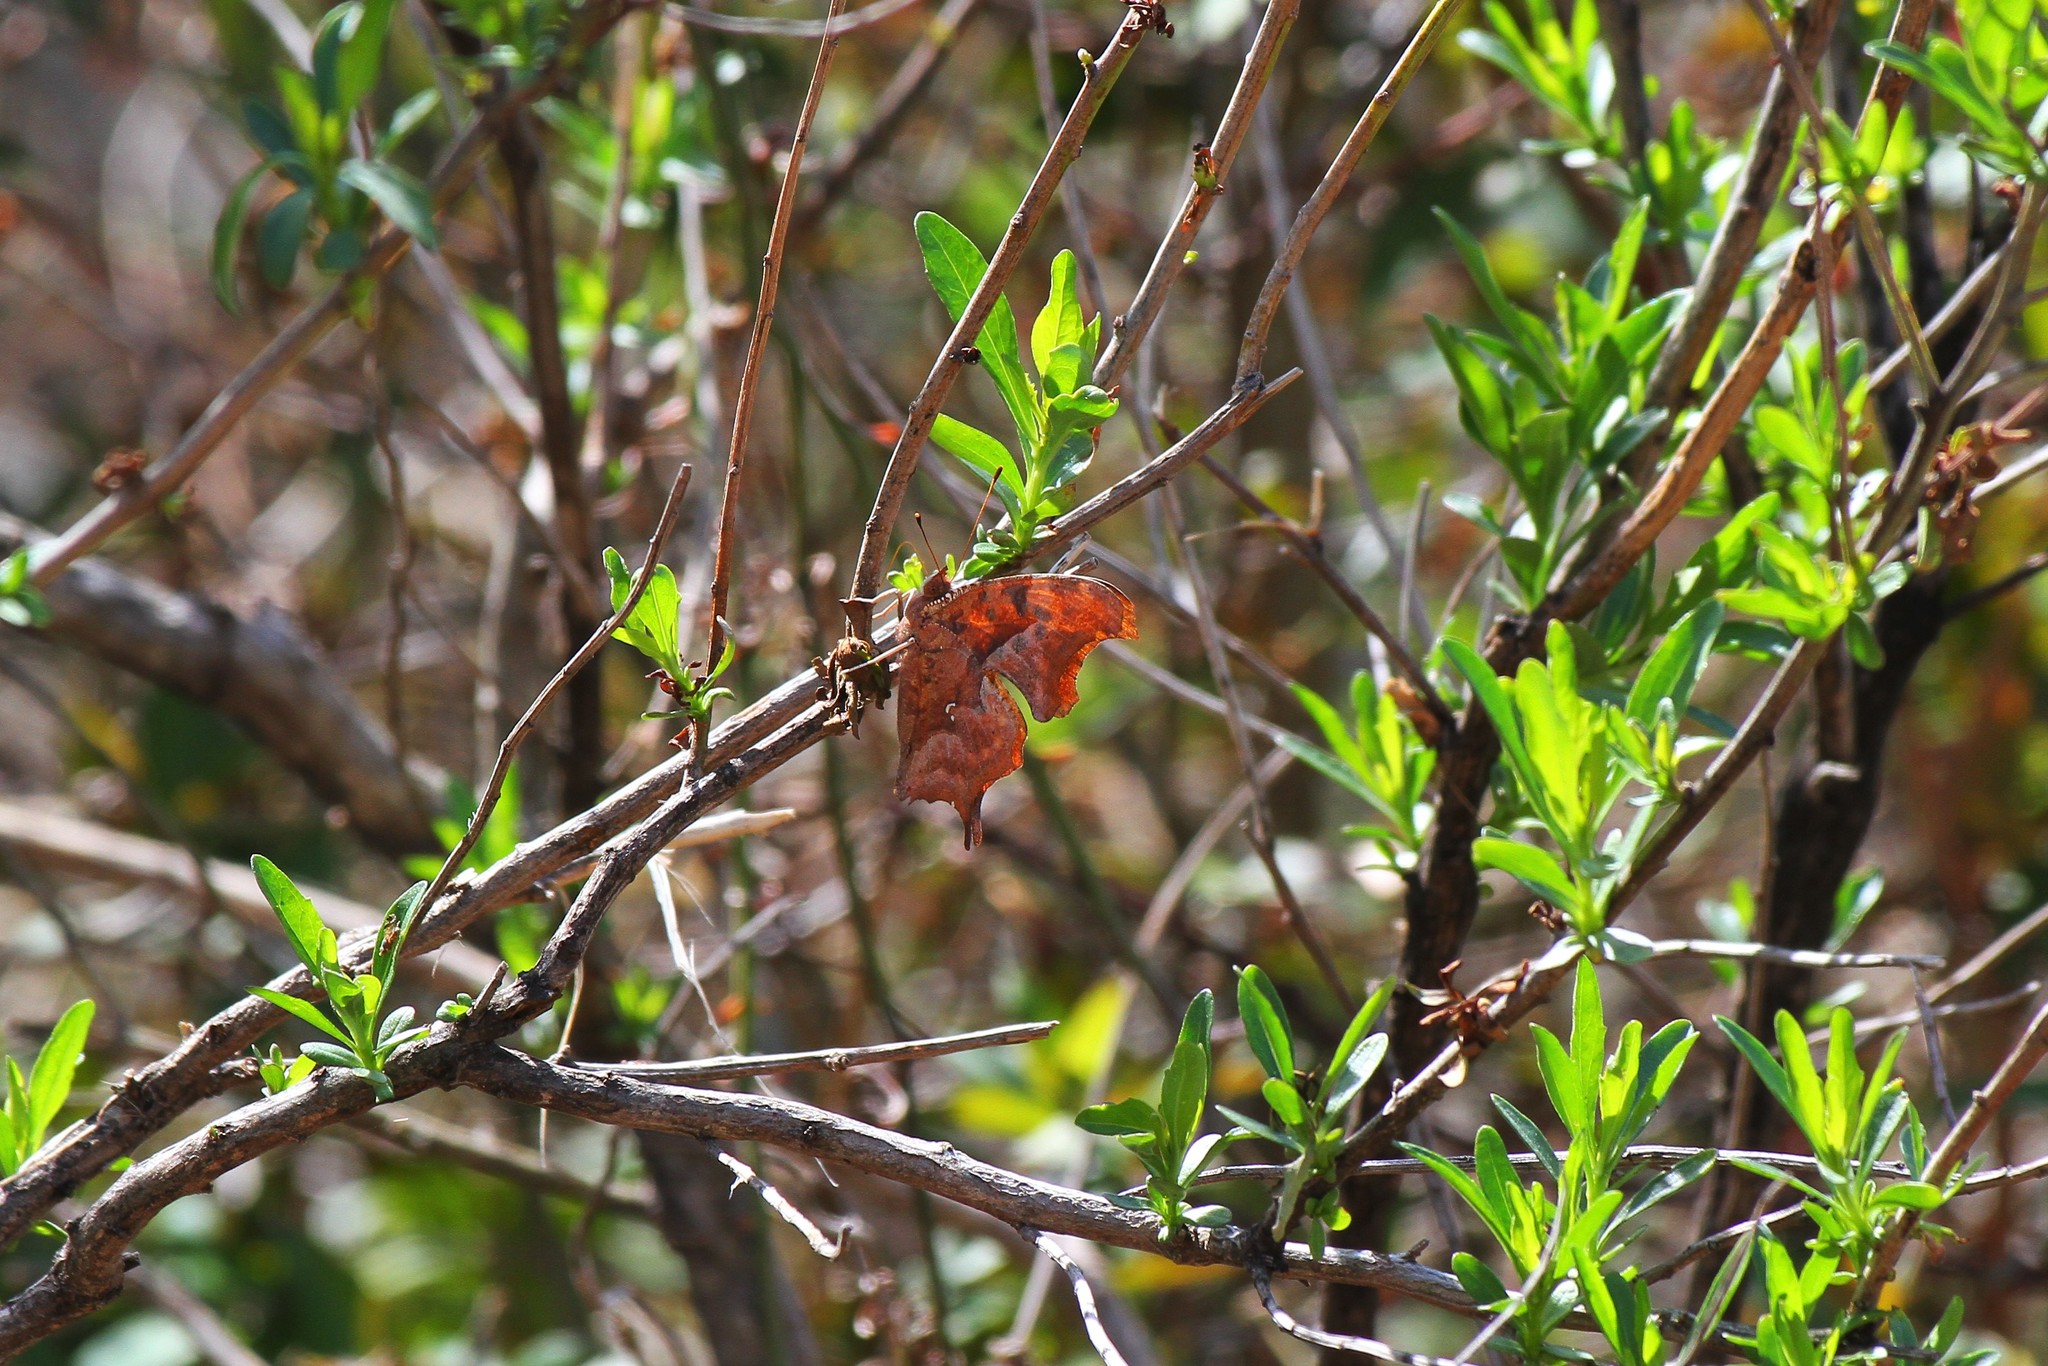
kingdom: Animalia
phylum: Arthropoda
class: Insecta
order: Lepidoptera
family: Nymphalidae
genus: Polygonia
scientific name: Polygonia interrogationis
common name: Question mark
